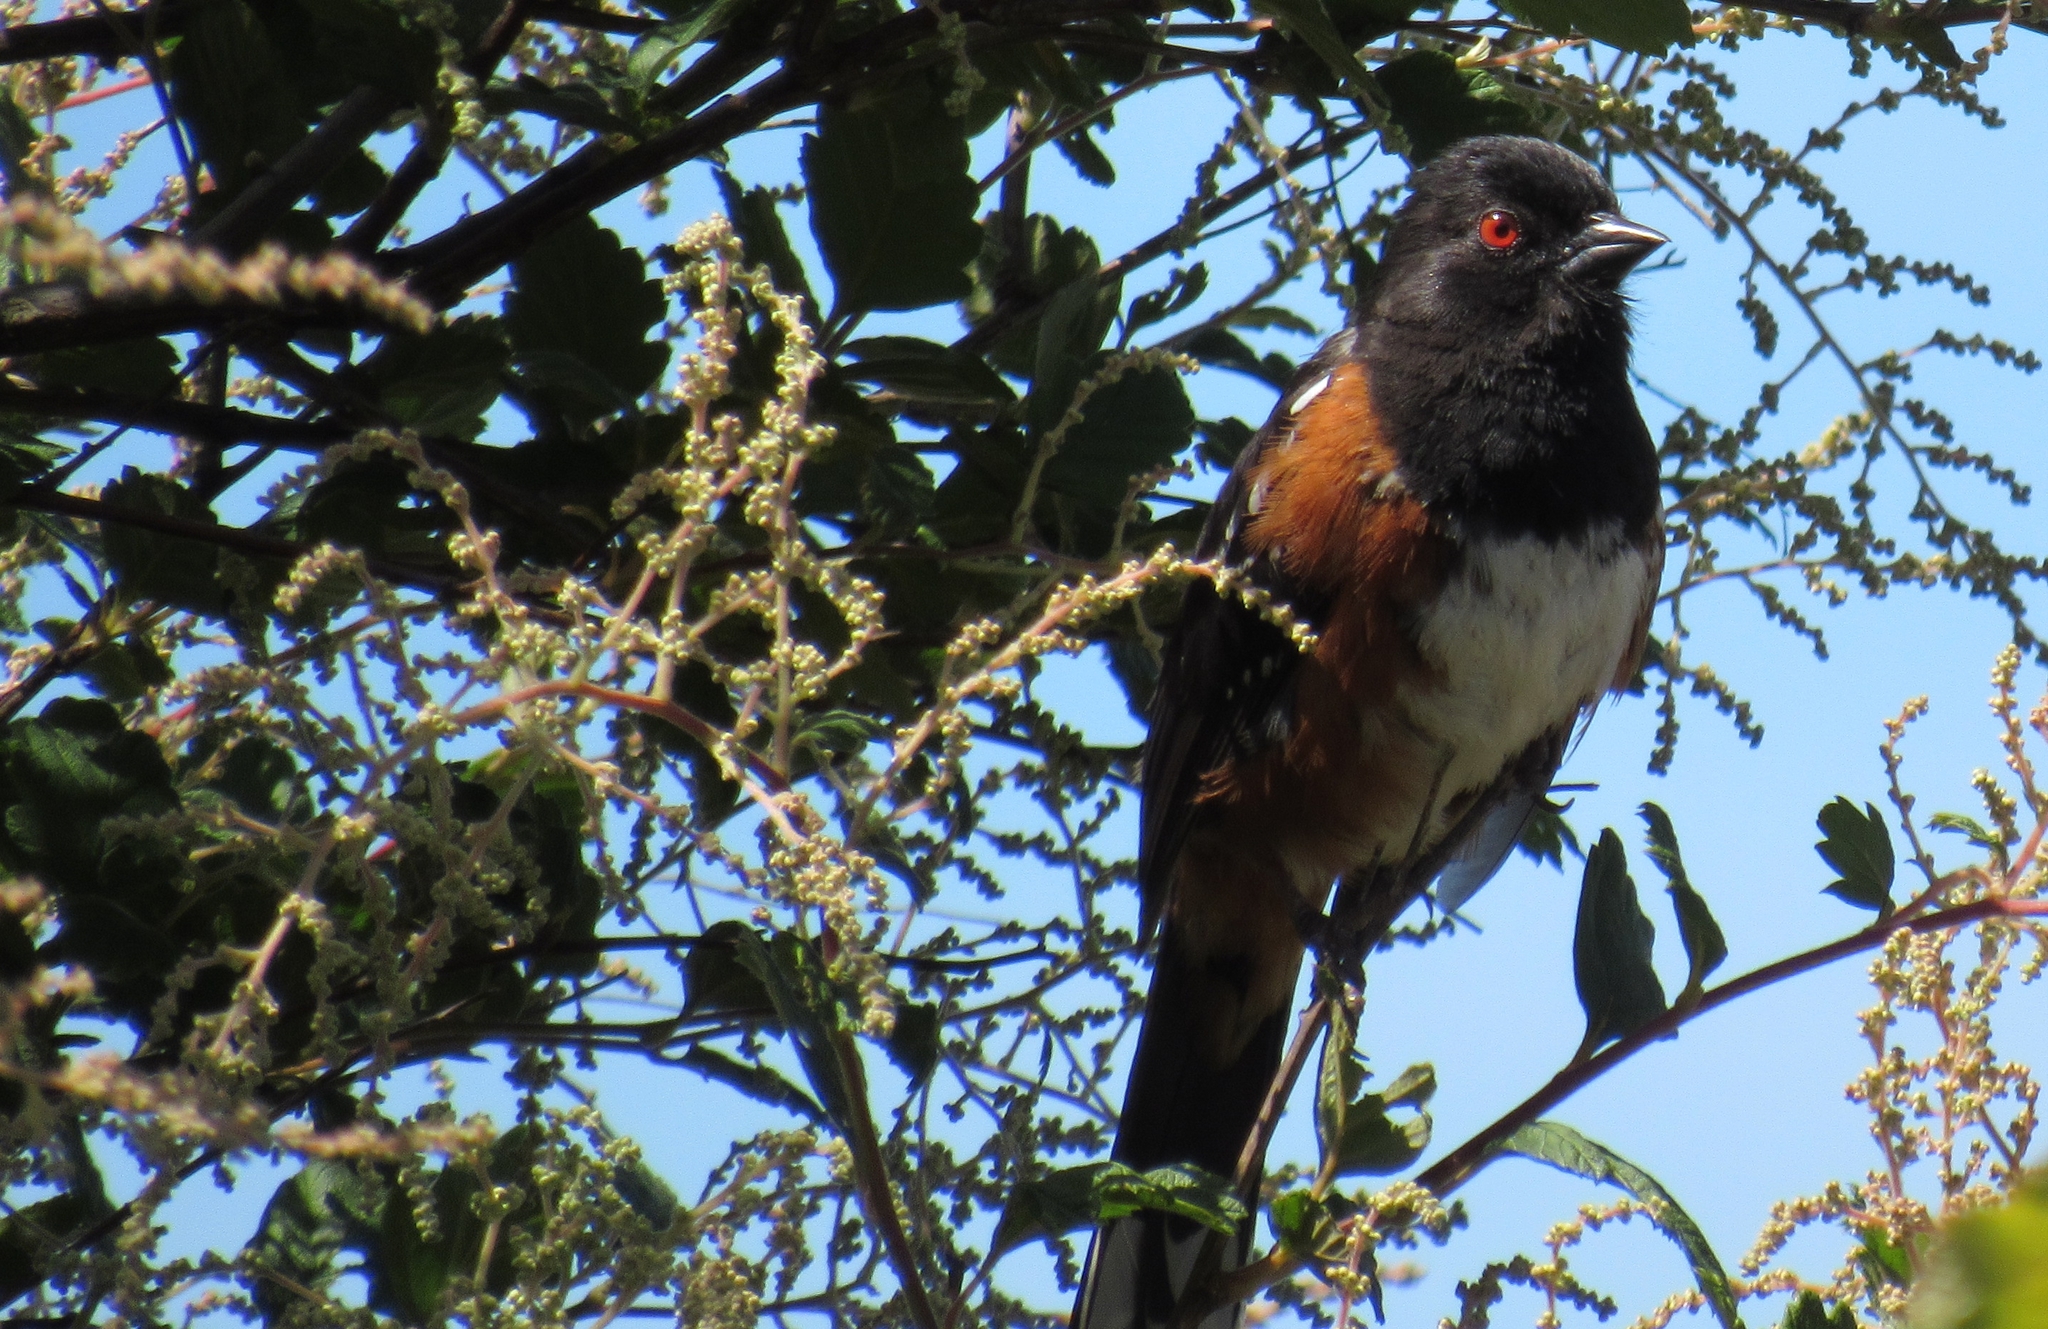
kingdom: Animalia
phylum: Chordata
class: Aves
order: Passeriformes
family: Passerellidae
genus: Pipilo
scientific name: Pipilo maculatus
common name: Spotted towhee
